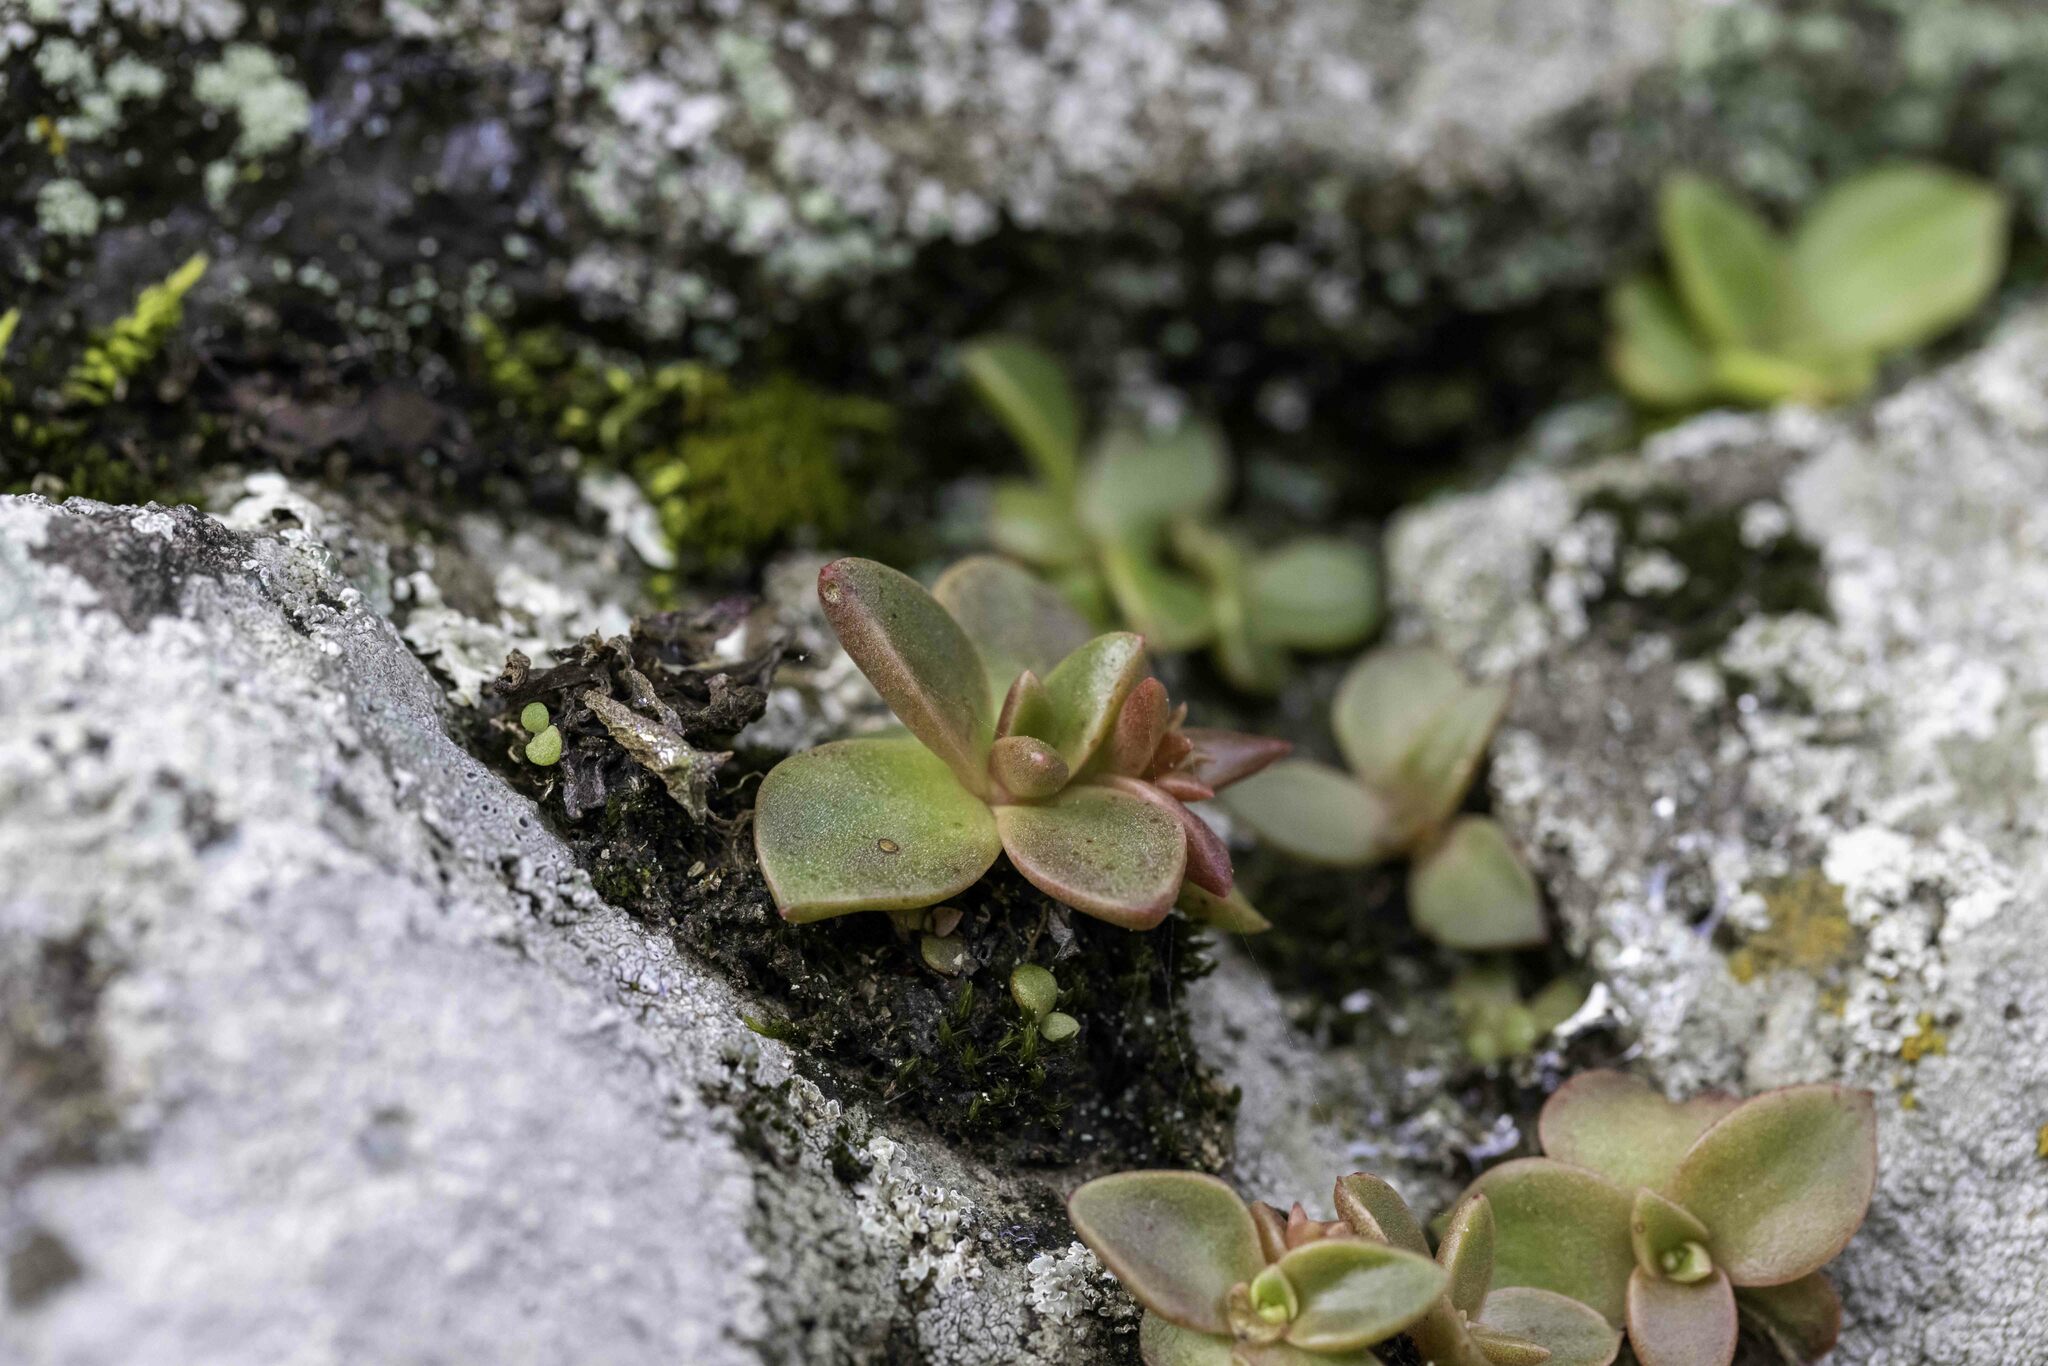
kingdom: Plantae
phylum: Tracheophyta
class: Magnoliopsida
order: Saxifragales
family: Crassulaceae
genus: Dudleya
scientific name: Dudleya cymosa
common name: Canyon dudleya
